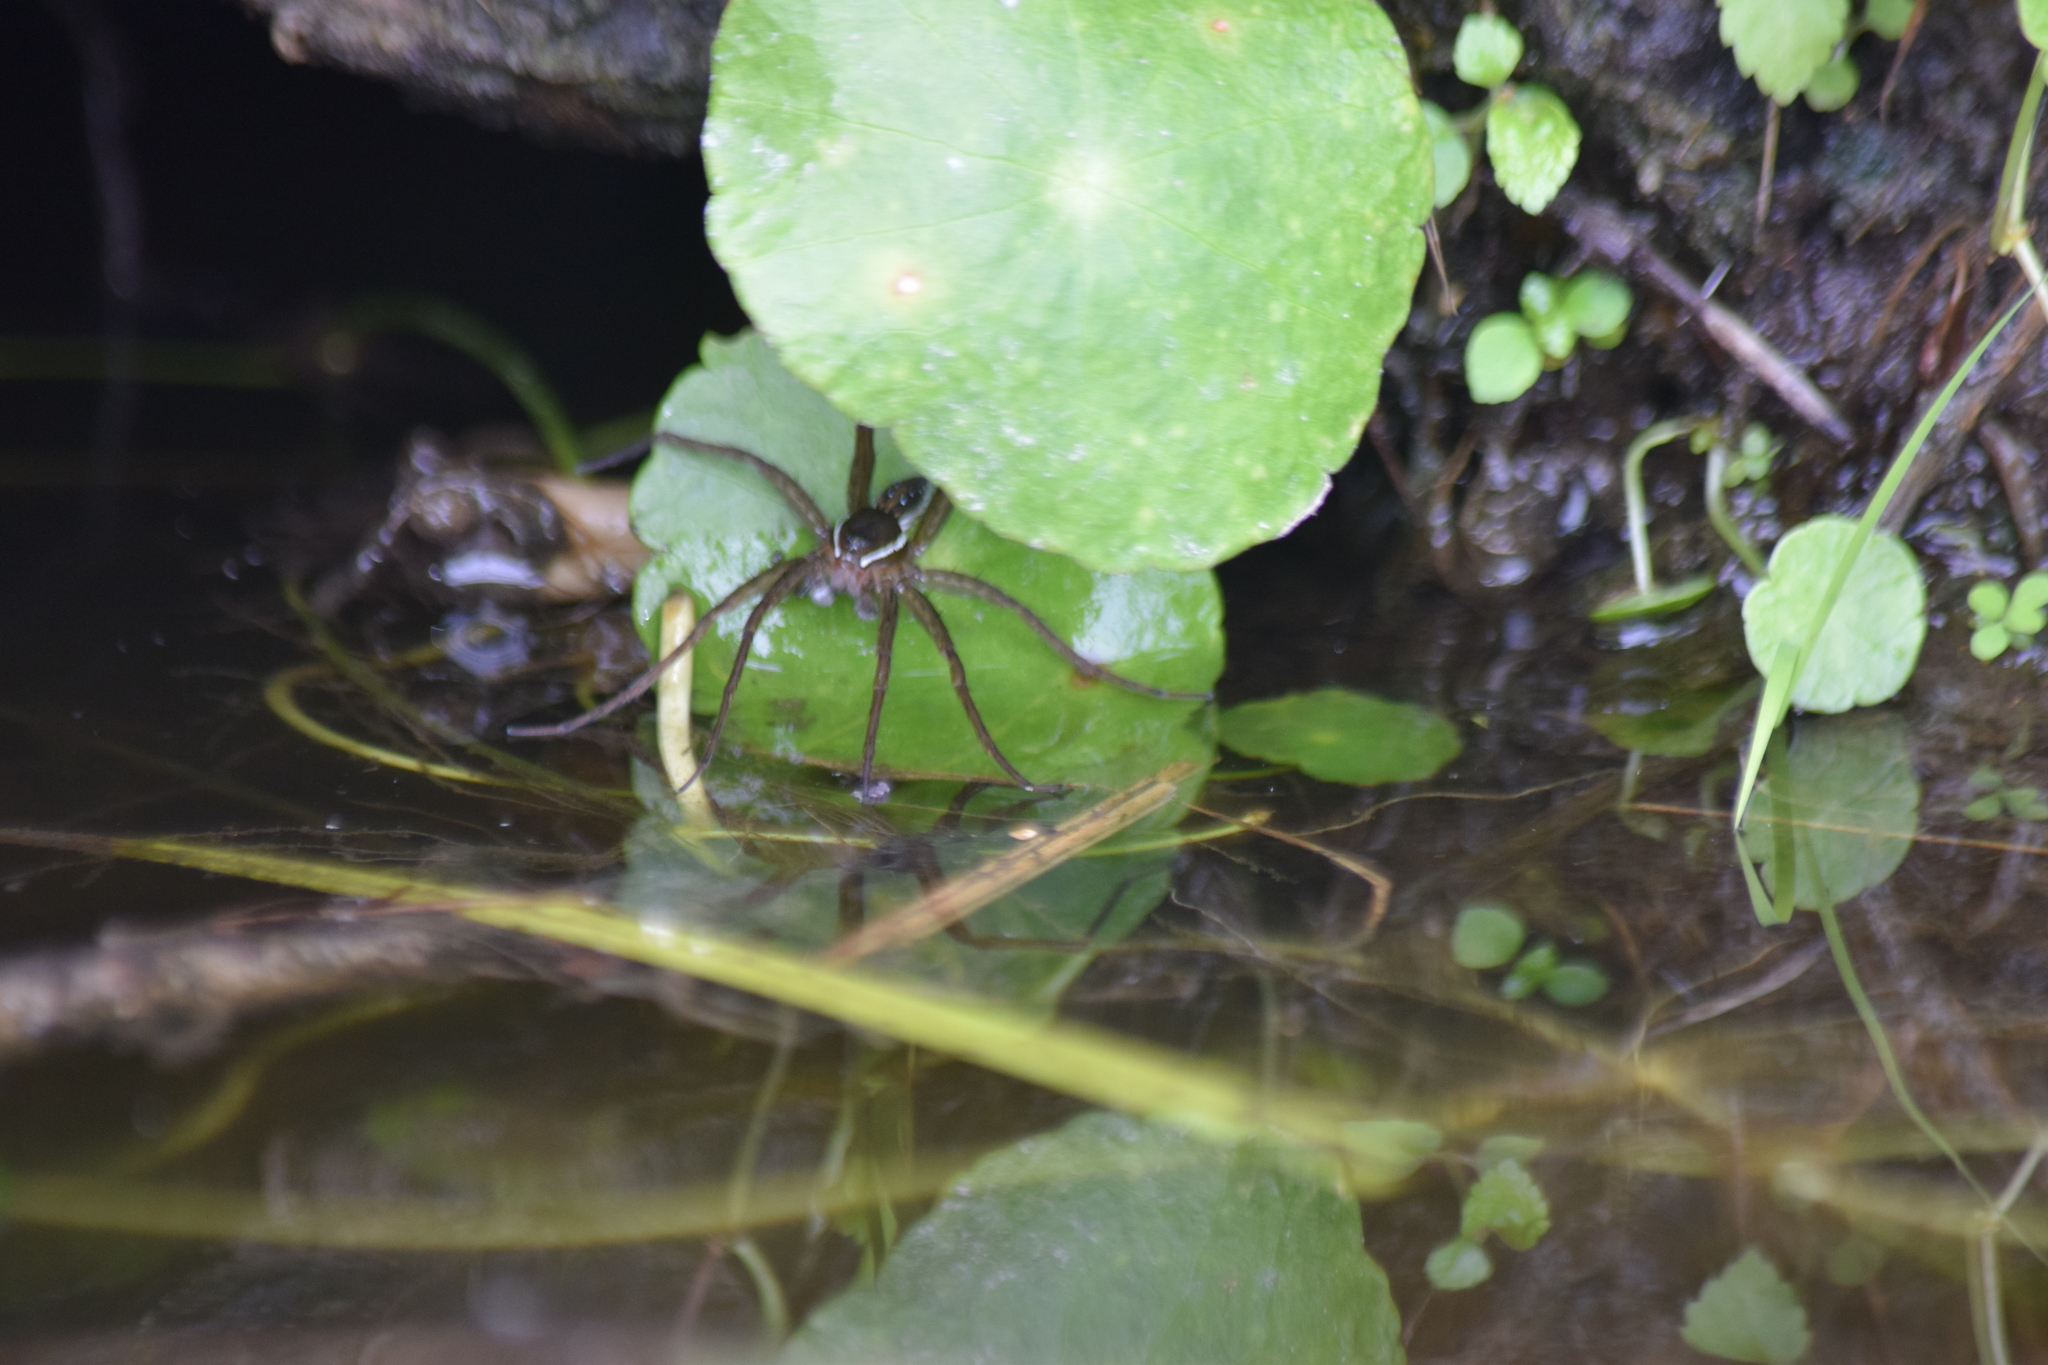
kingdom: Animalia
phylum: Arthropoda
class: Arachnida
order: Araneae
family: Pisauridae
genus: Dolomedes
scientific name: Dolomedes triton
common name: Six-spotted fishing spider
